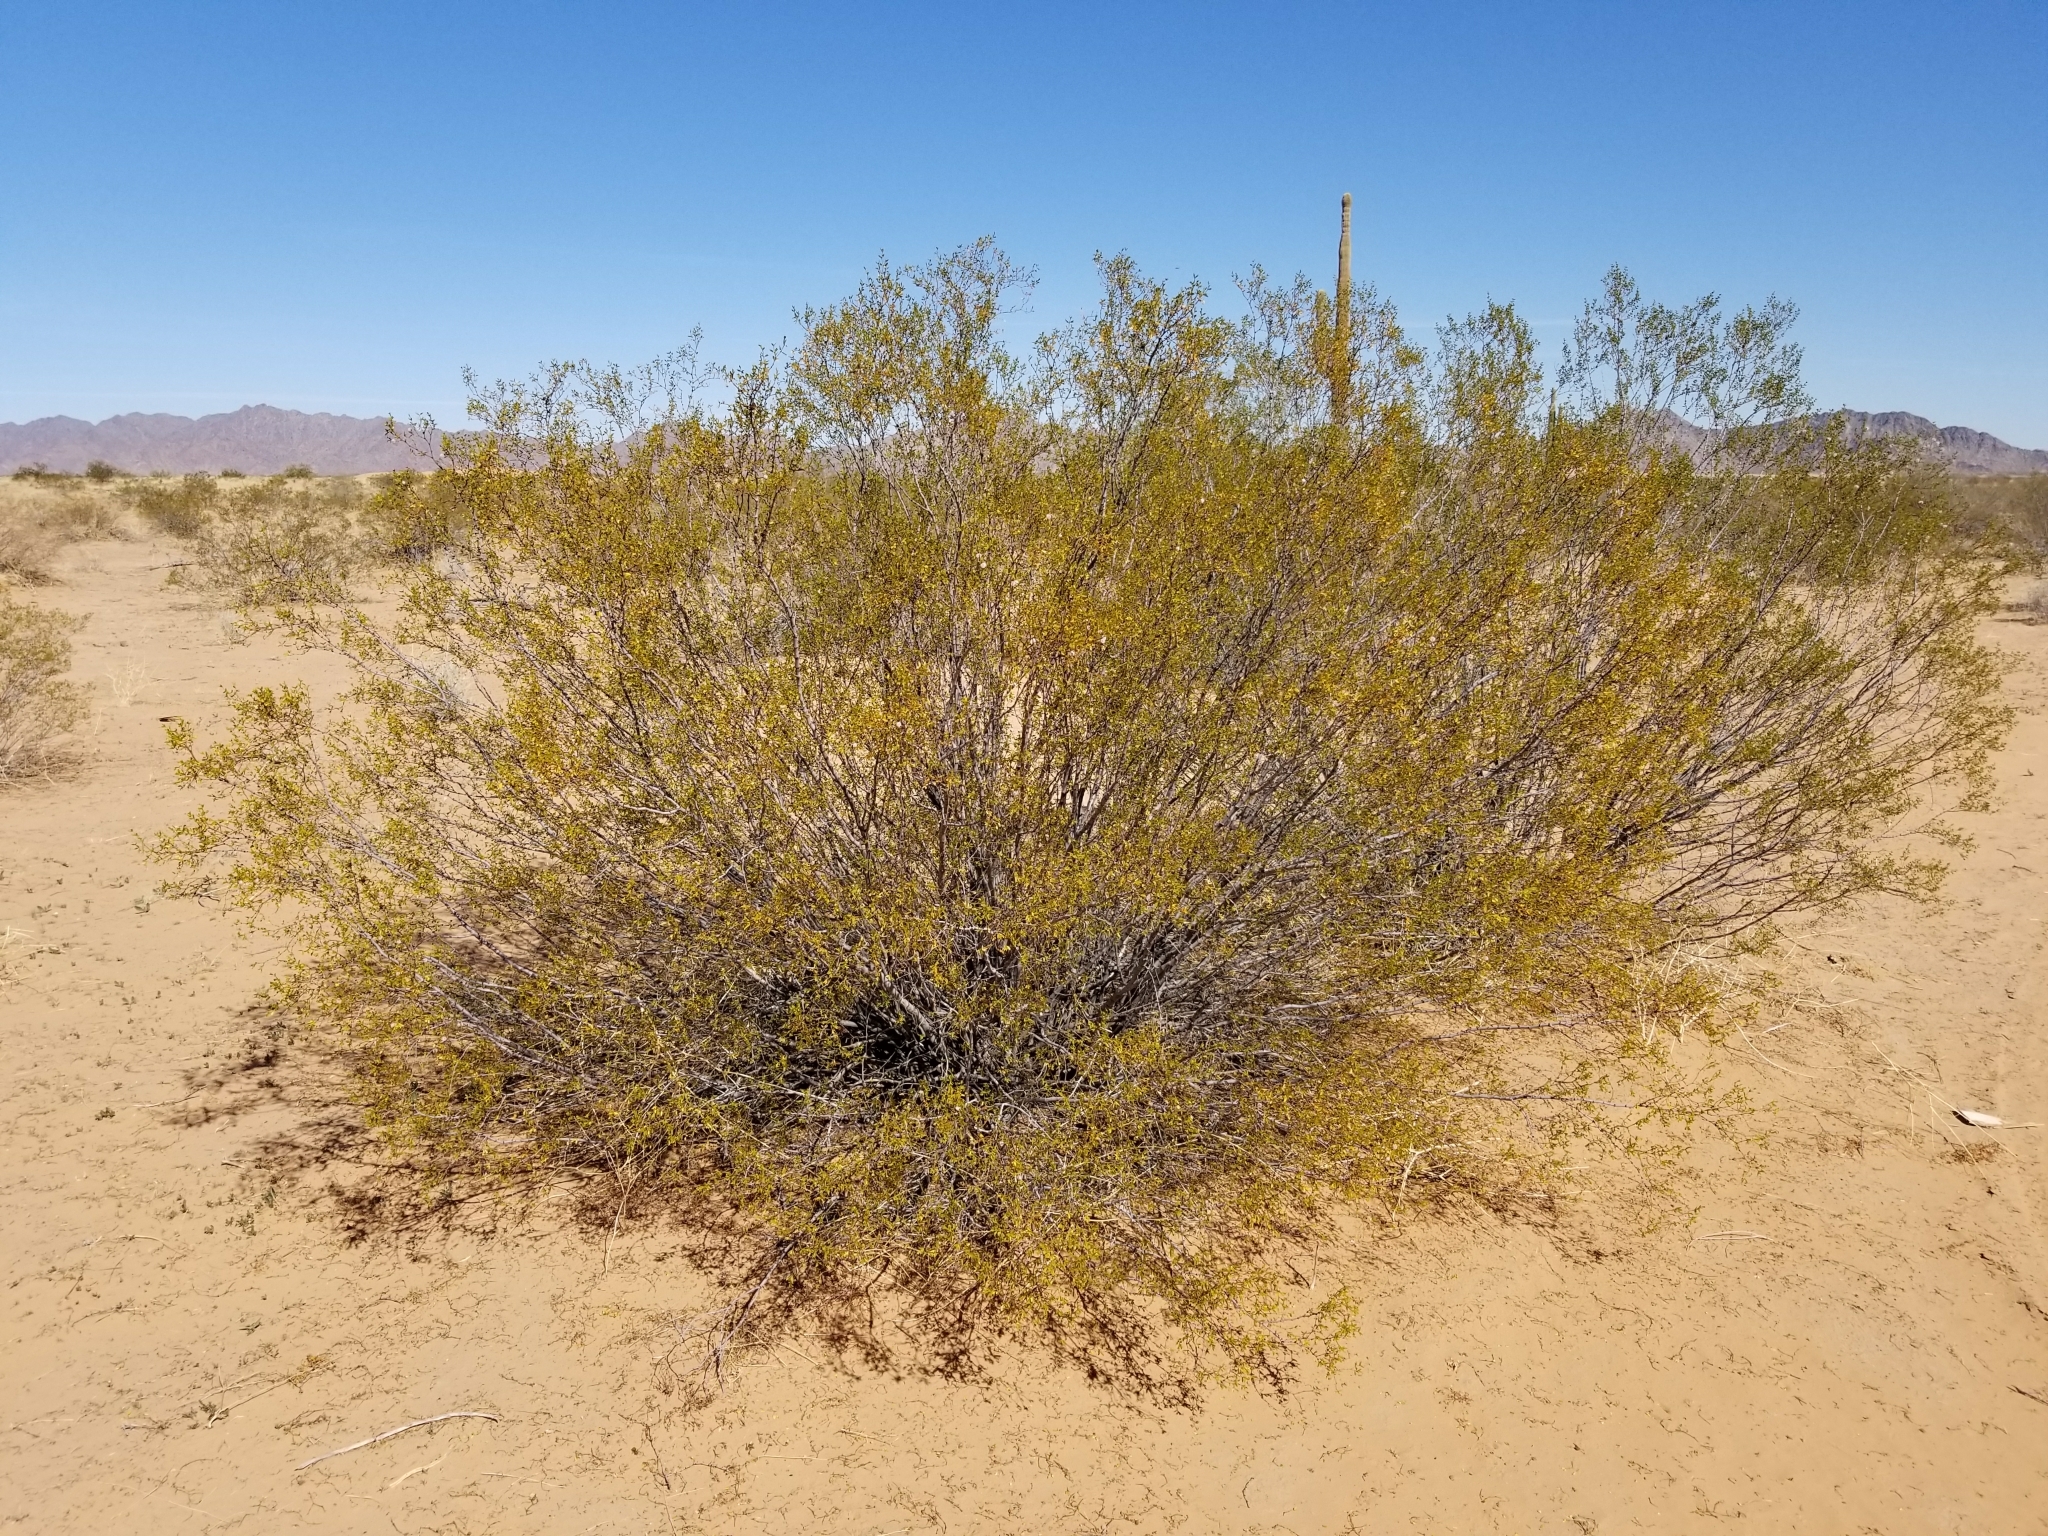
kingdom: Plantae
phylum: Tracheophyta
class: Magnoliopsida
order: Zygophyllales
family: Zygophyllaceae
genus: Larrea
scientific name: Larrea tridentata
